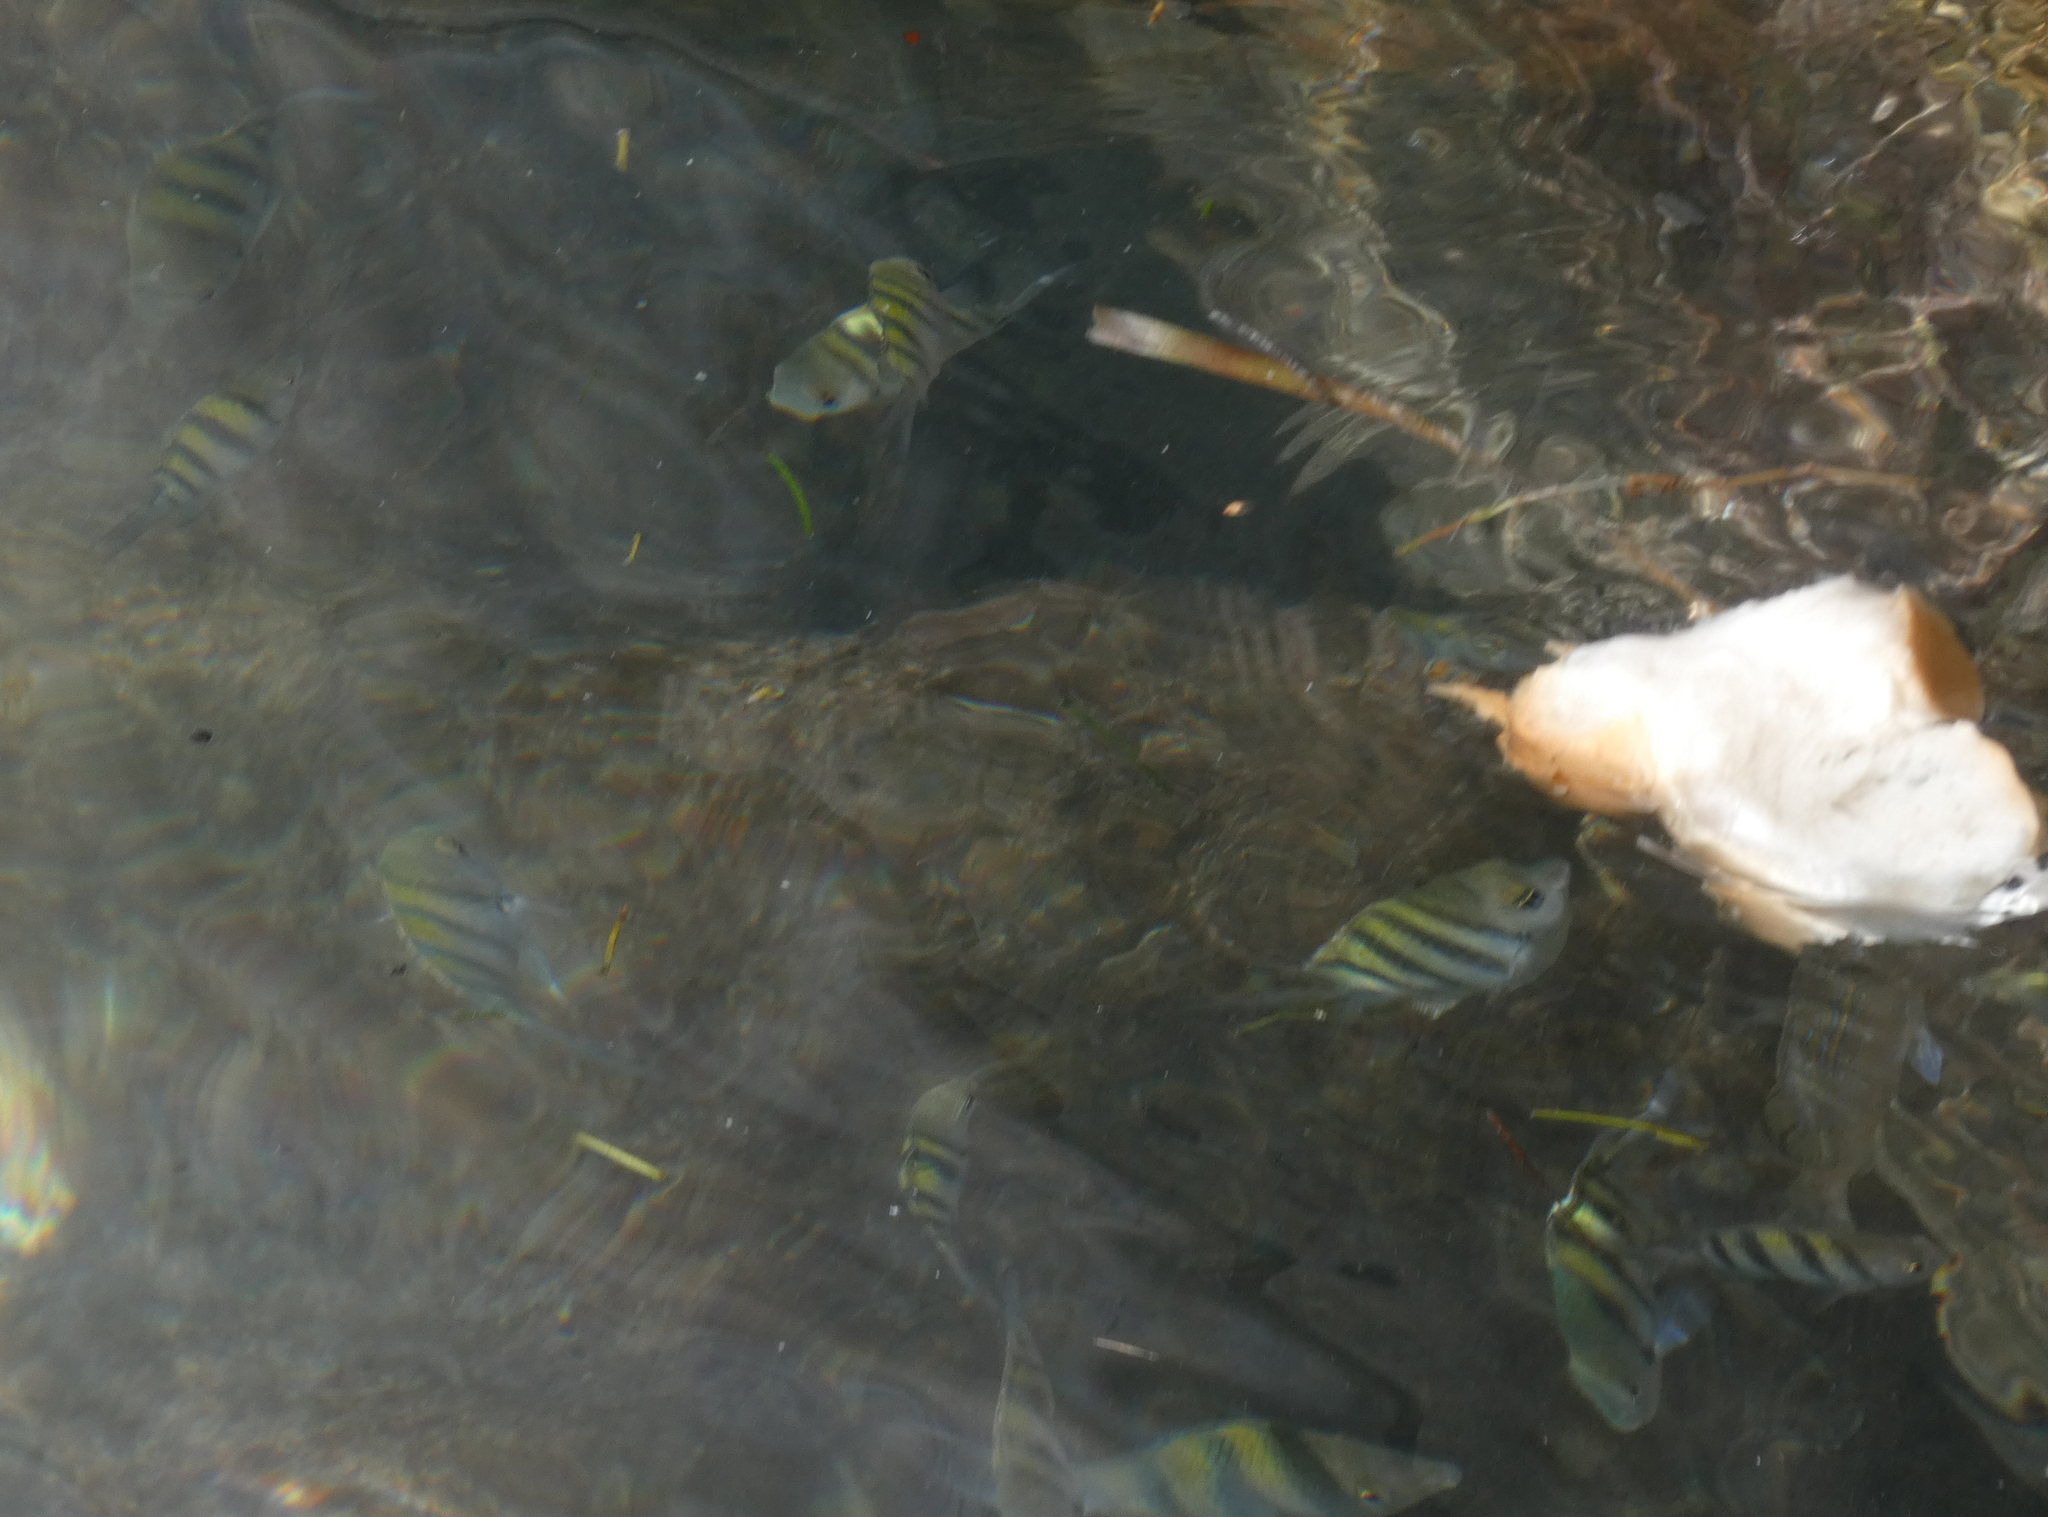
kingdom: Animalia
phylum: Chordata
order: Perciformes
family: Pomacentridae
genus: Abudefduf
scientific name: Abudefduf saxatilis
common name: Sergeant major
